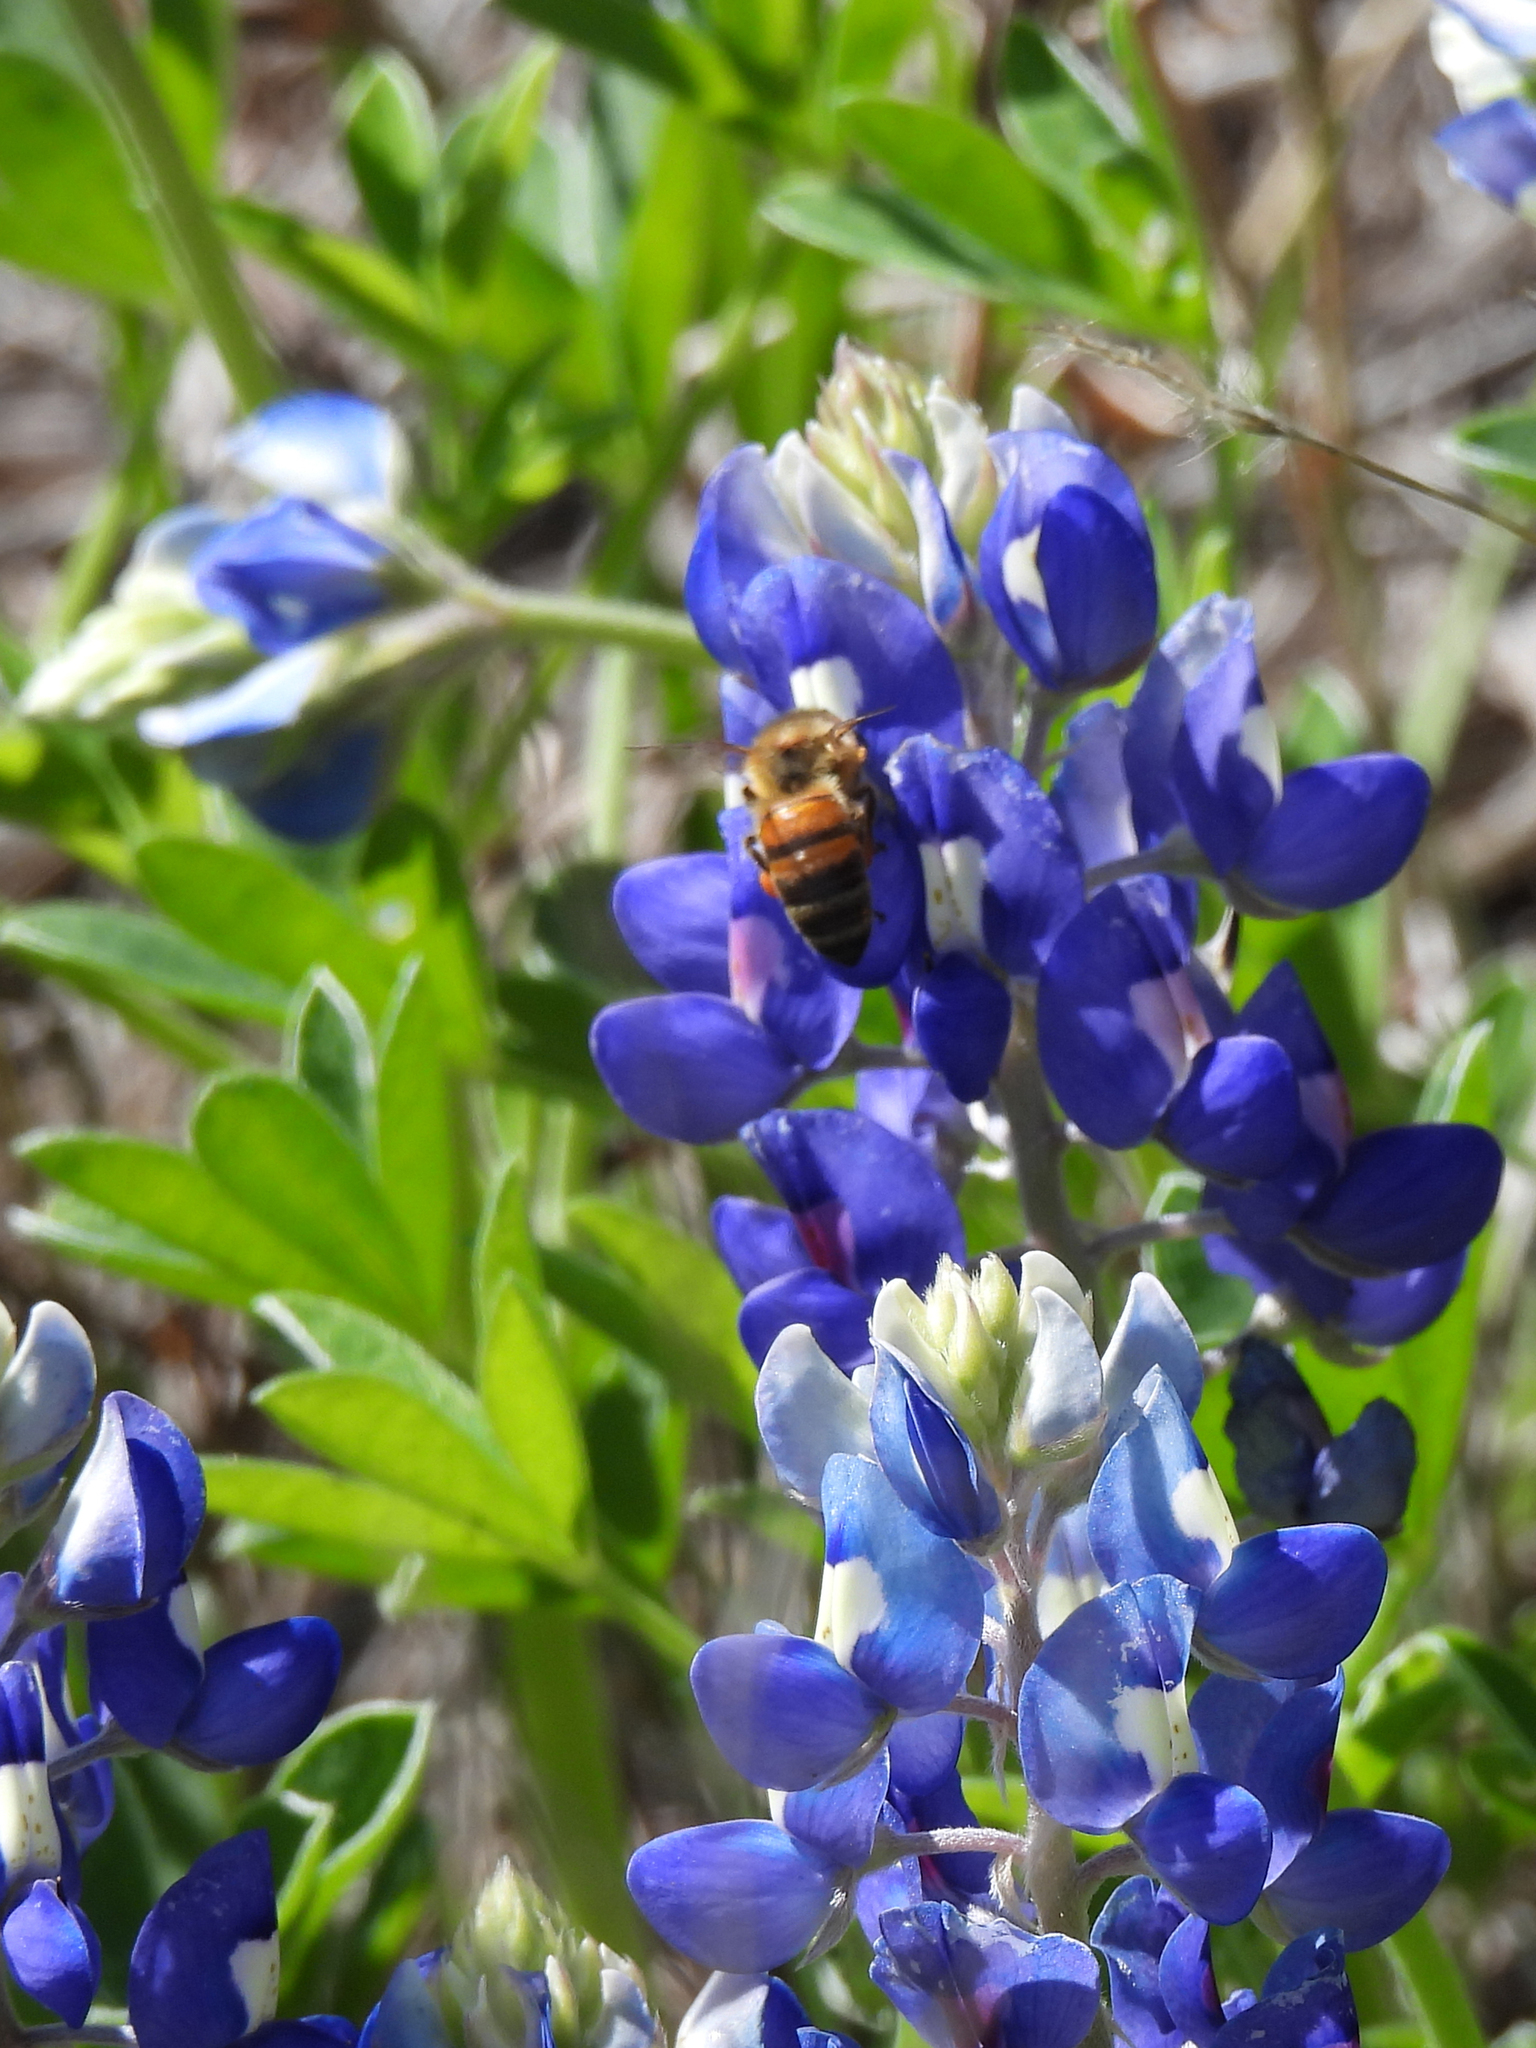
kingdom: Plantae
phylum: Tracheophyta
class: Magnoliopsida
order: Fabales
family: Fabaceae
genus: Lupinus
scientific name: Lupinus texensis
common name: Texas bluebonnet
